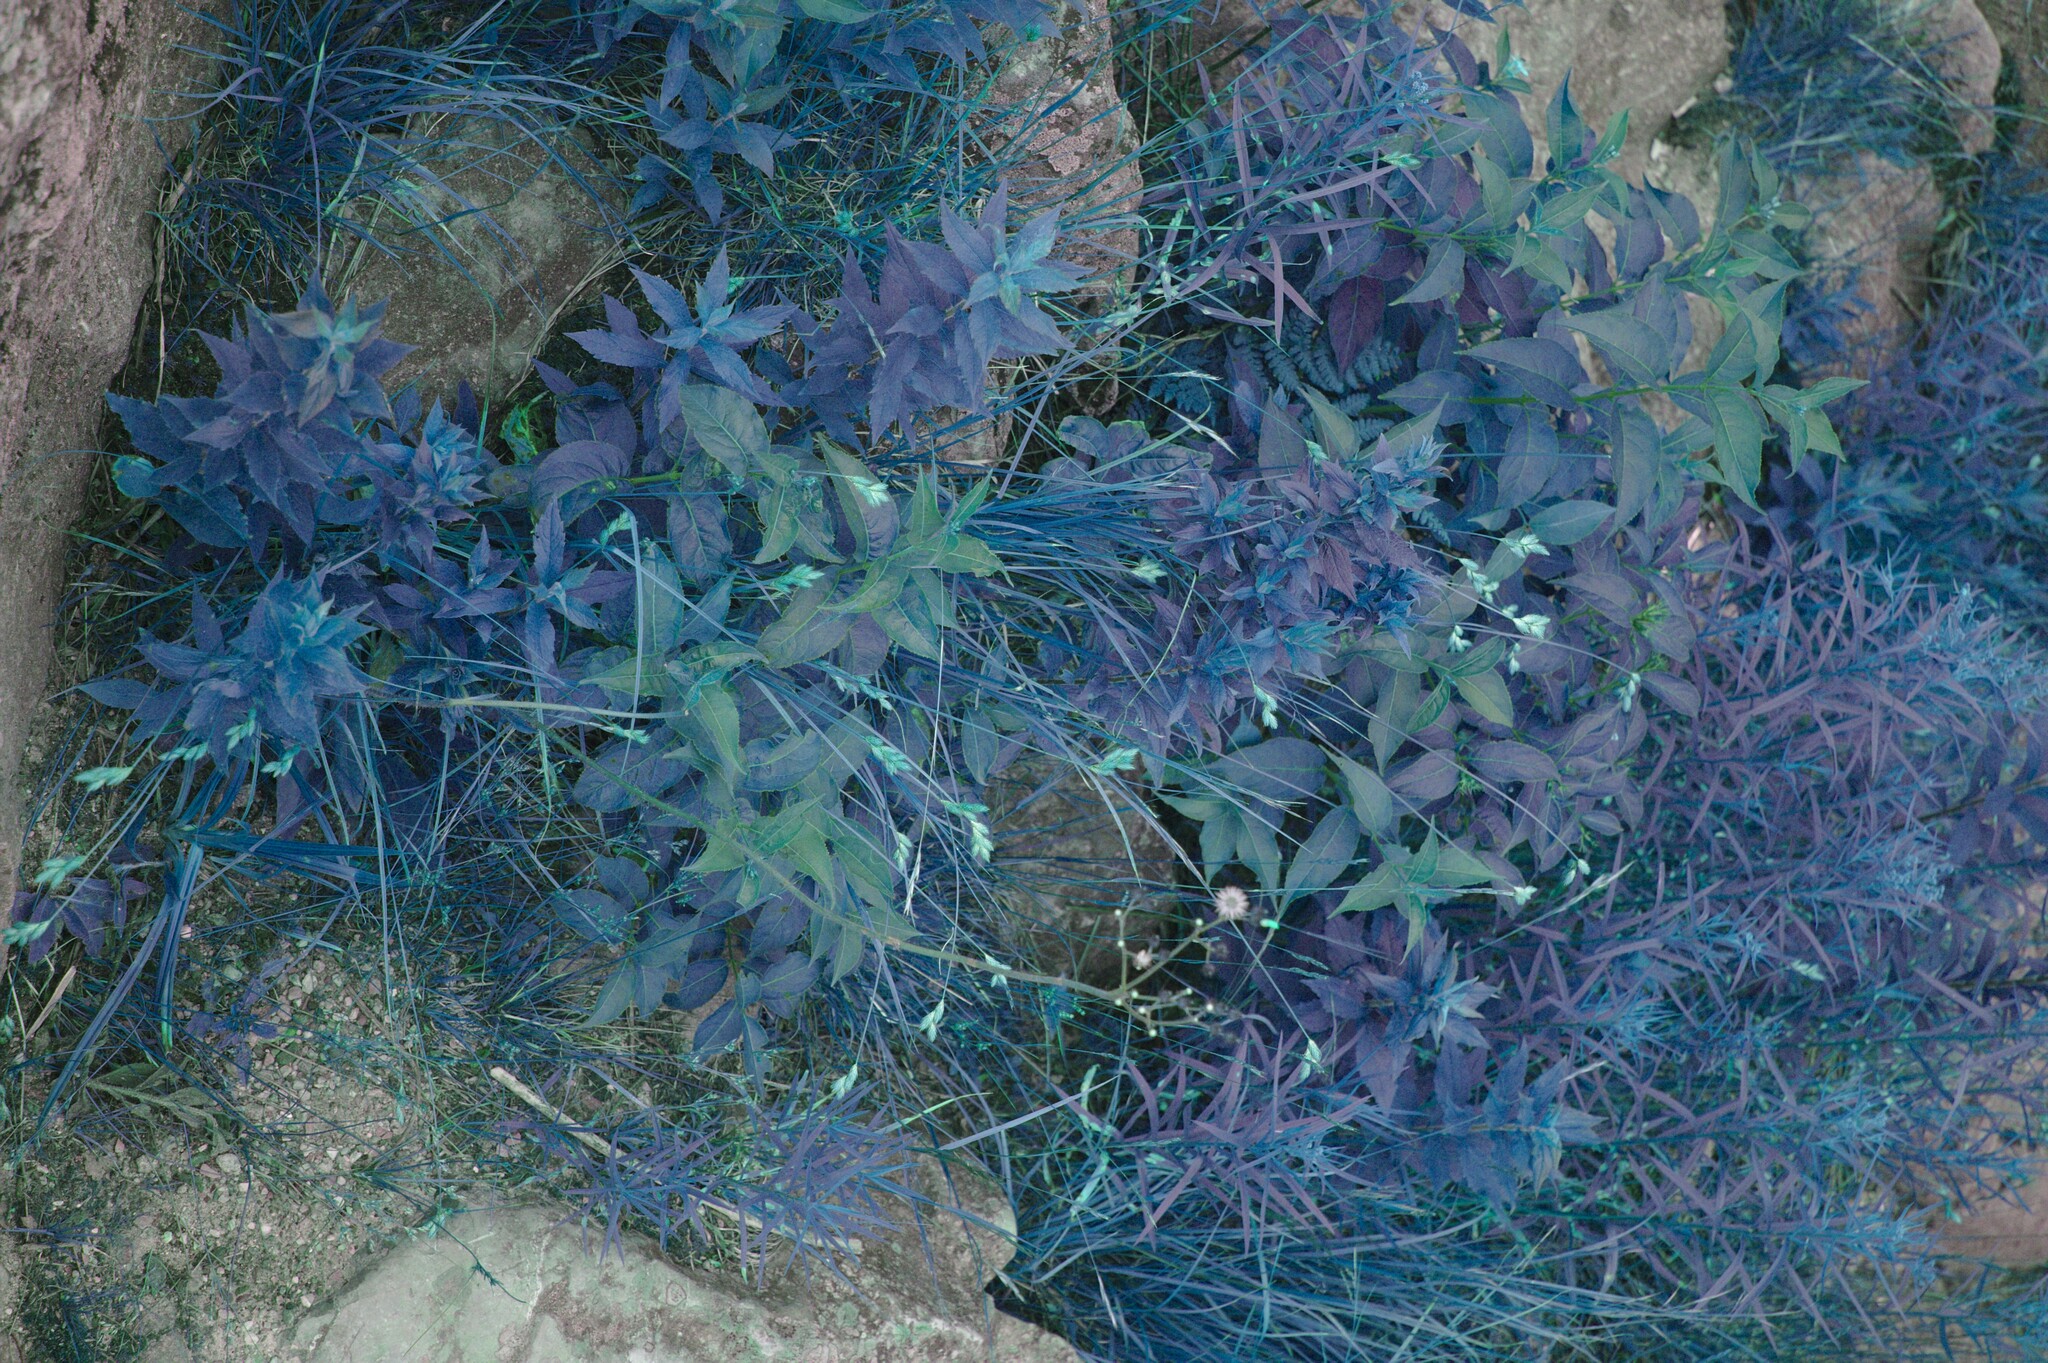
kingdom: Plantae
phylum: Tracheophyta
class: Magnoliopsida
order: Asterales
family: Asteraceae
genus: Euthamia
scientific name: Euthamia graminifolia
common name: Common goldentop
